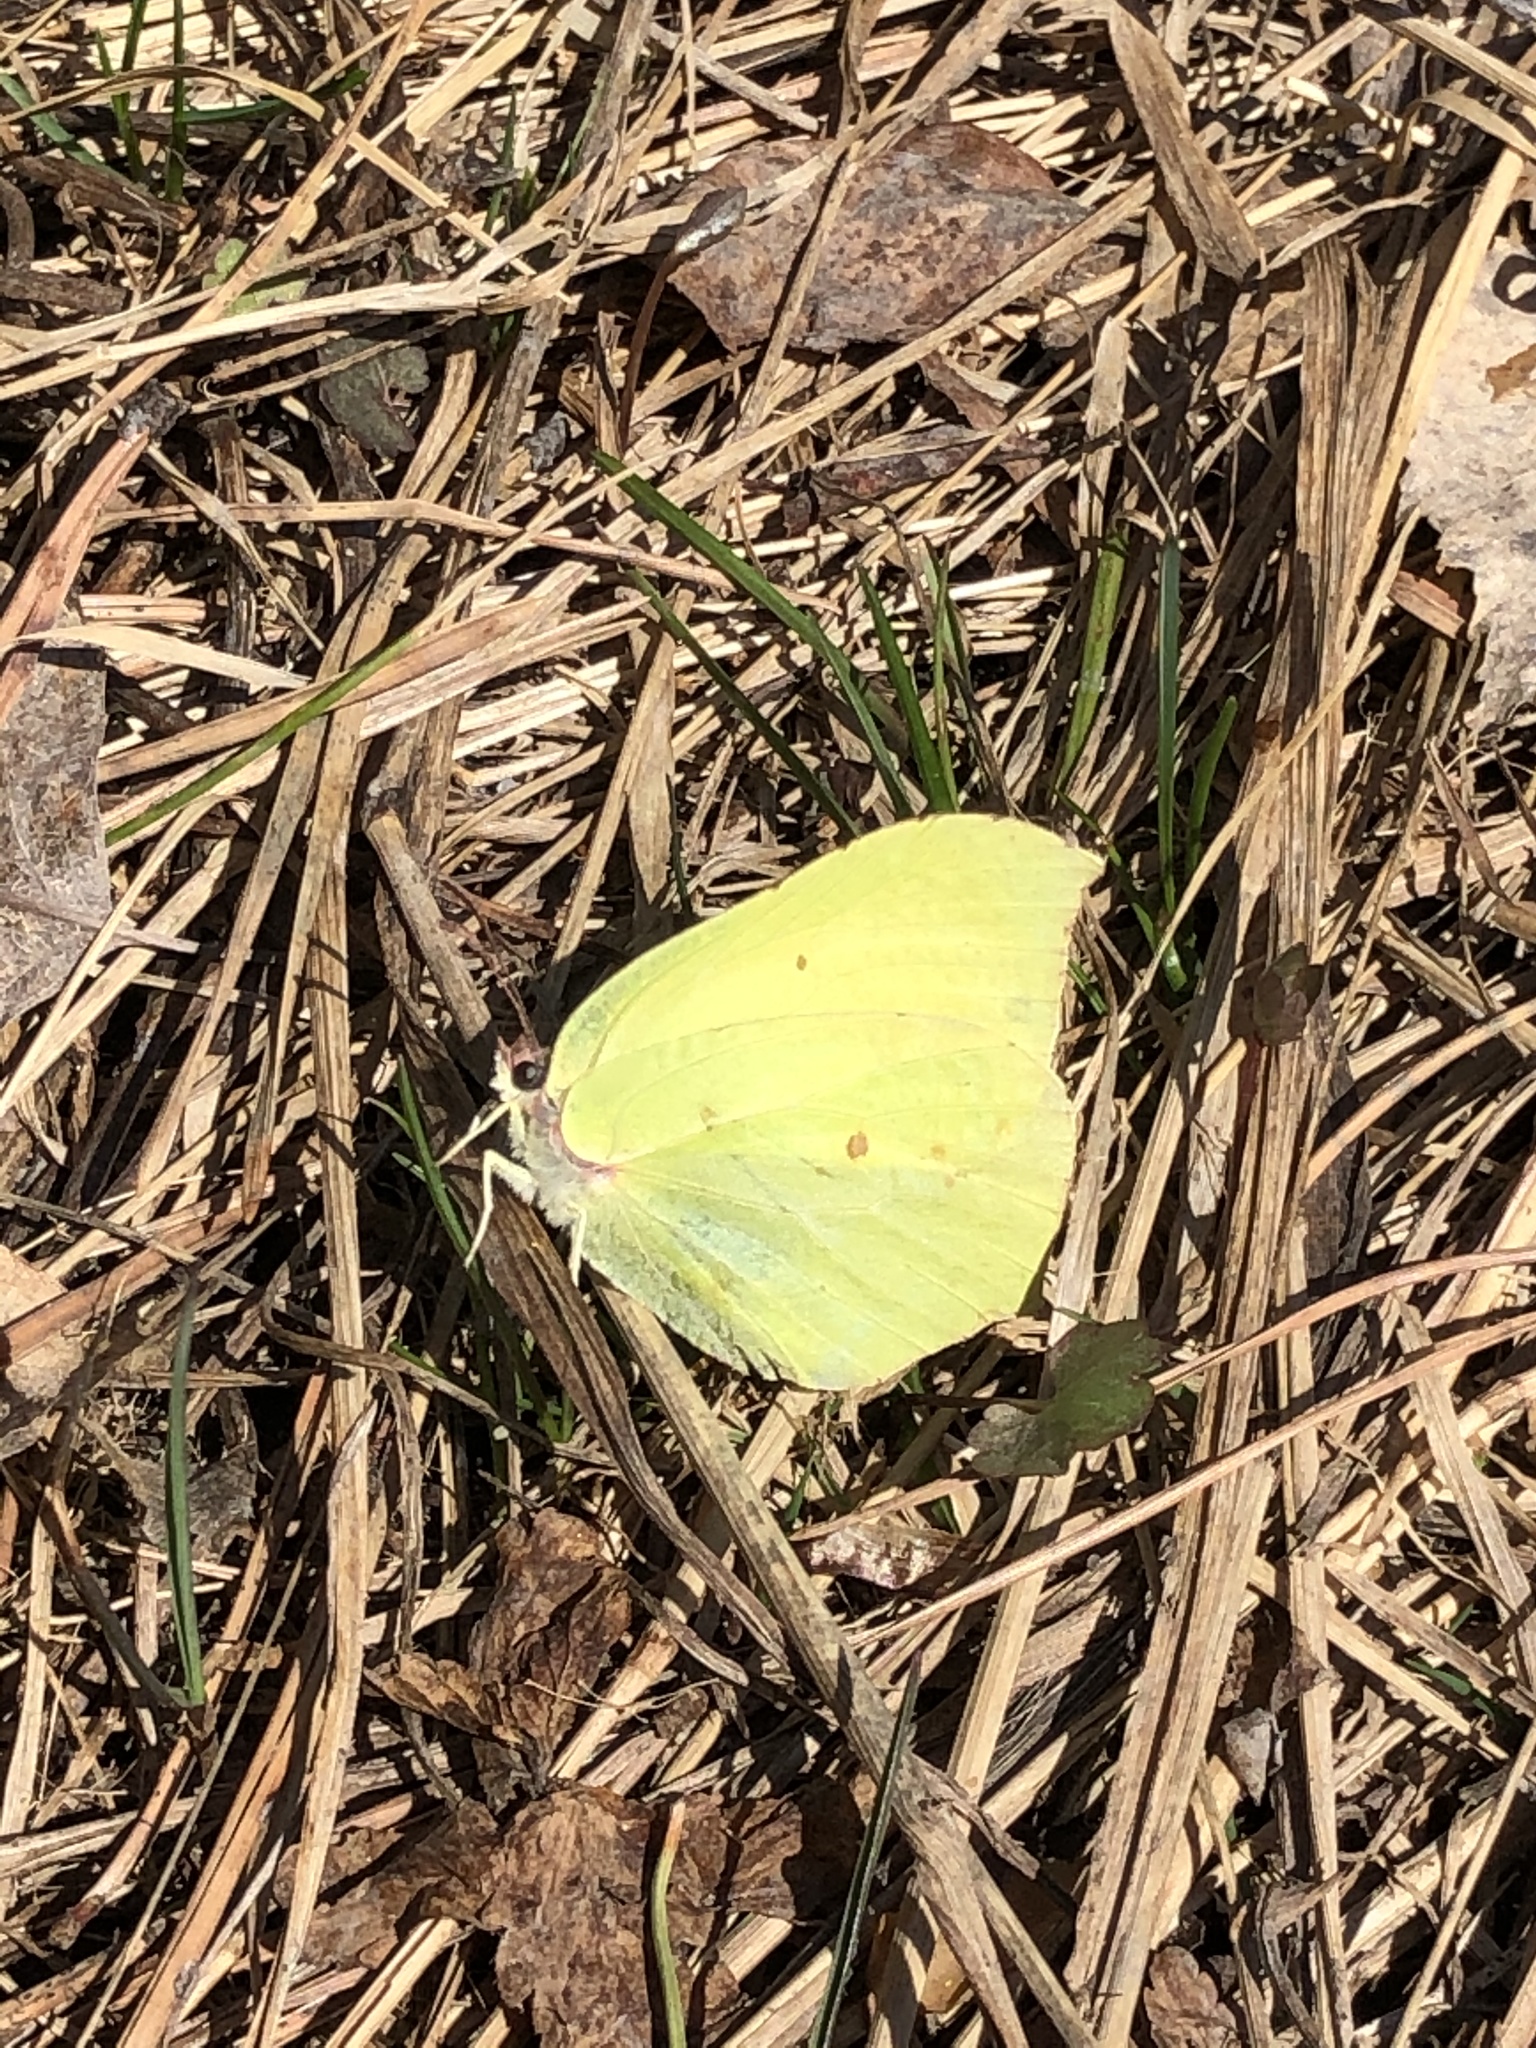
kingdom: Animalia
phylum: Arthropoda
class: Insecta
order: Lepidoptera
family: Pieridae
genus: Gonepteryx
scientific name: Gonepteryx rhamni
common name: Brimstone
